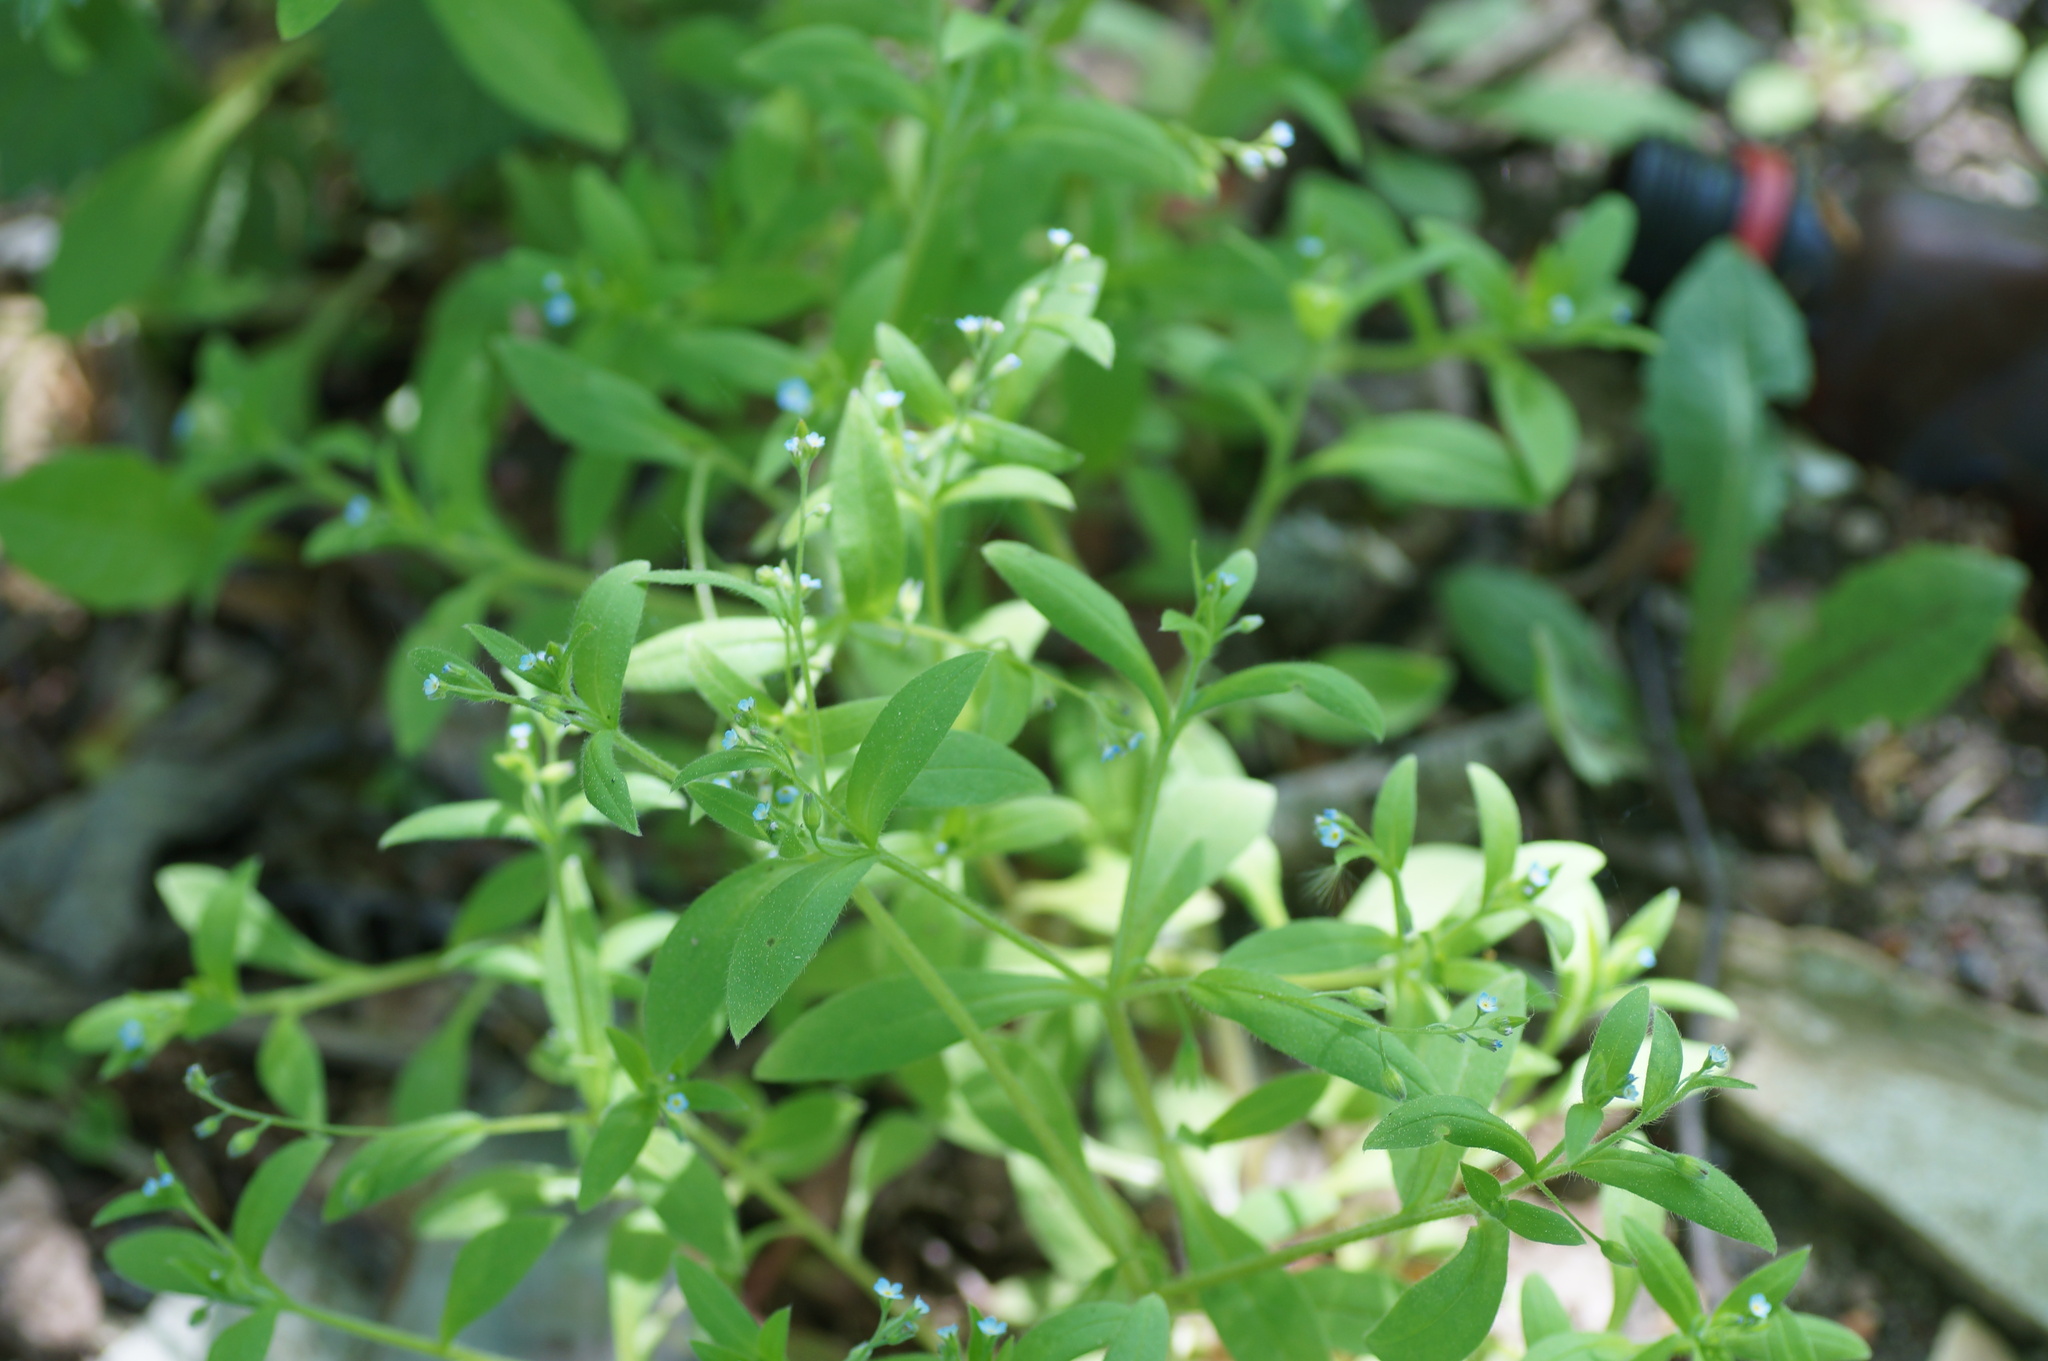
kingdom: Plantae
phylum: Tracheophyta
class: Magnoliopsida
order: Boraginales
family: Boraginaceae
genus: Myosotis
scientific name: Myosotis sparsiflora
